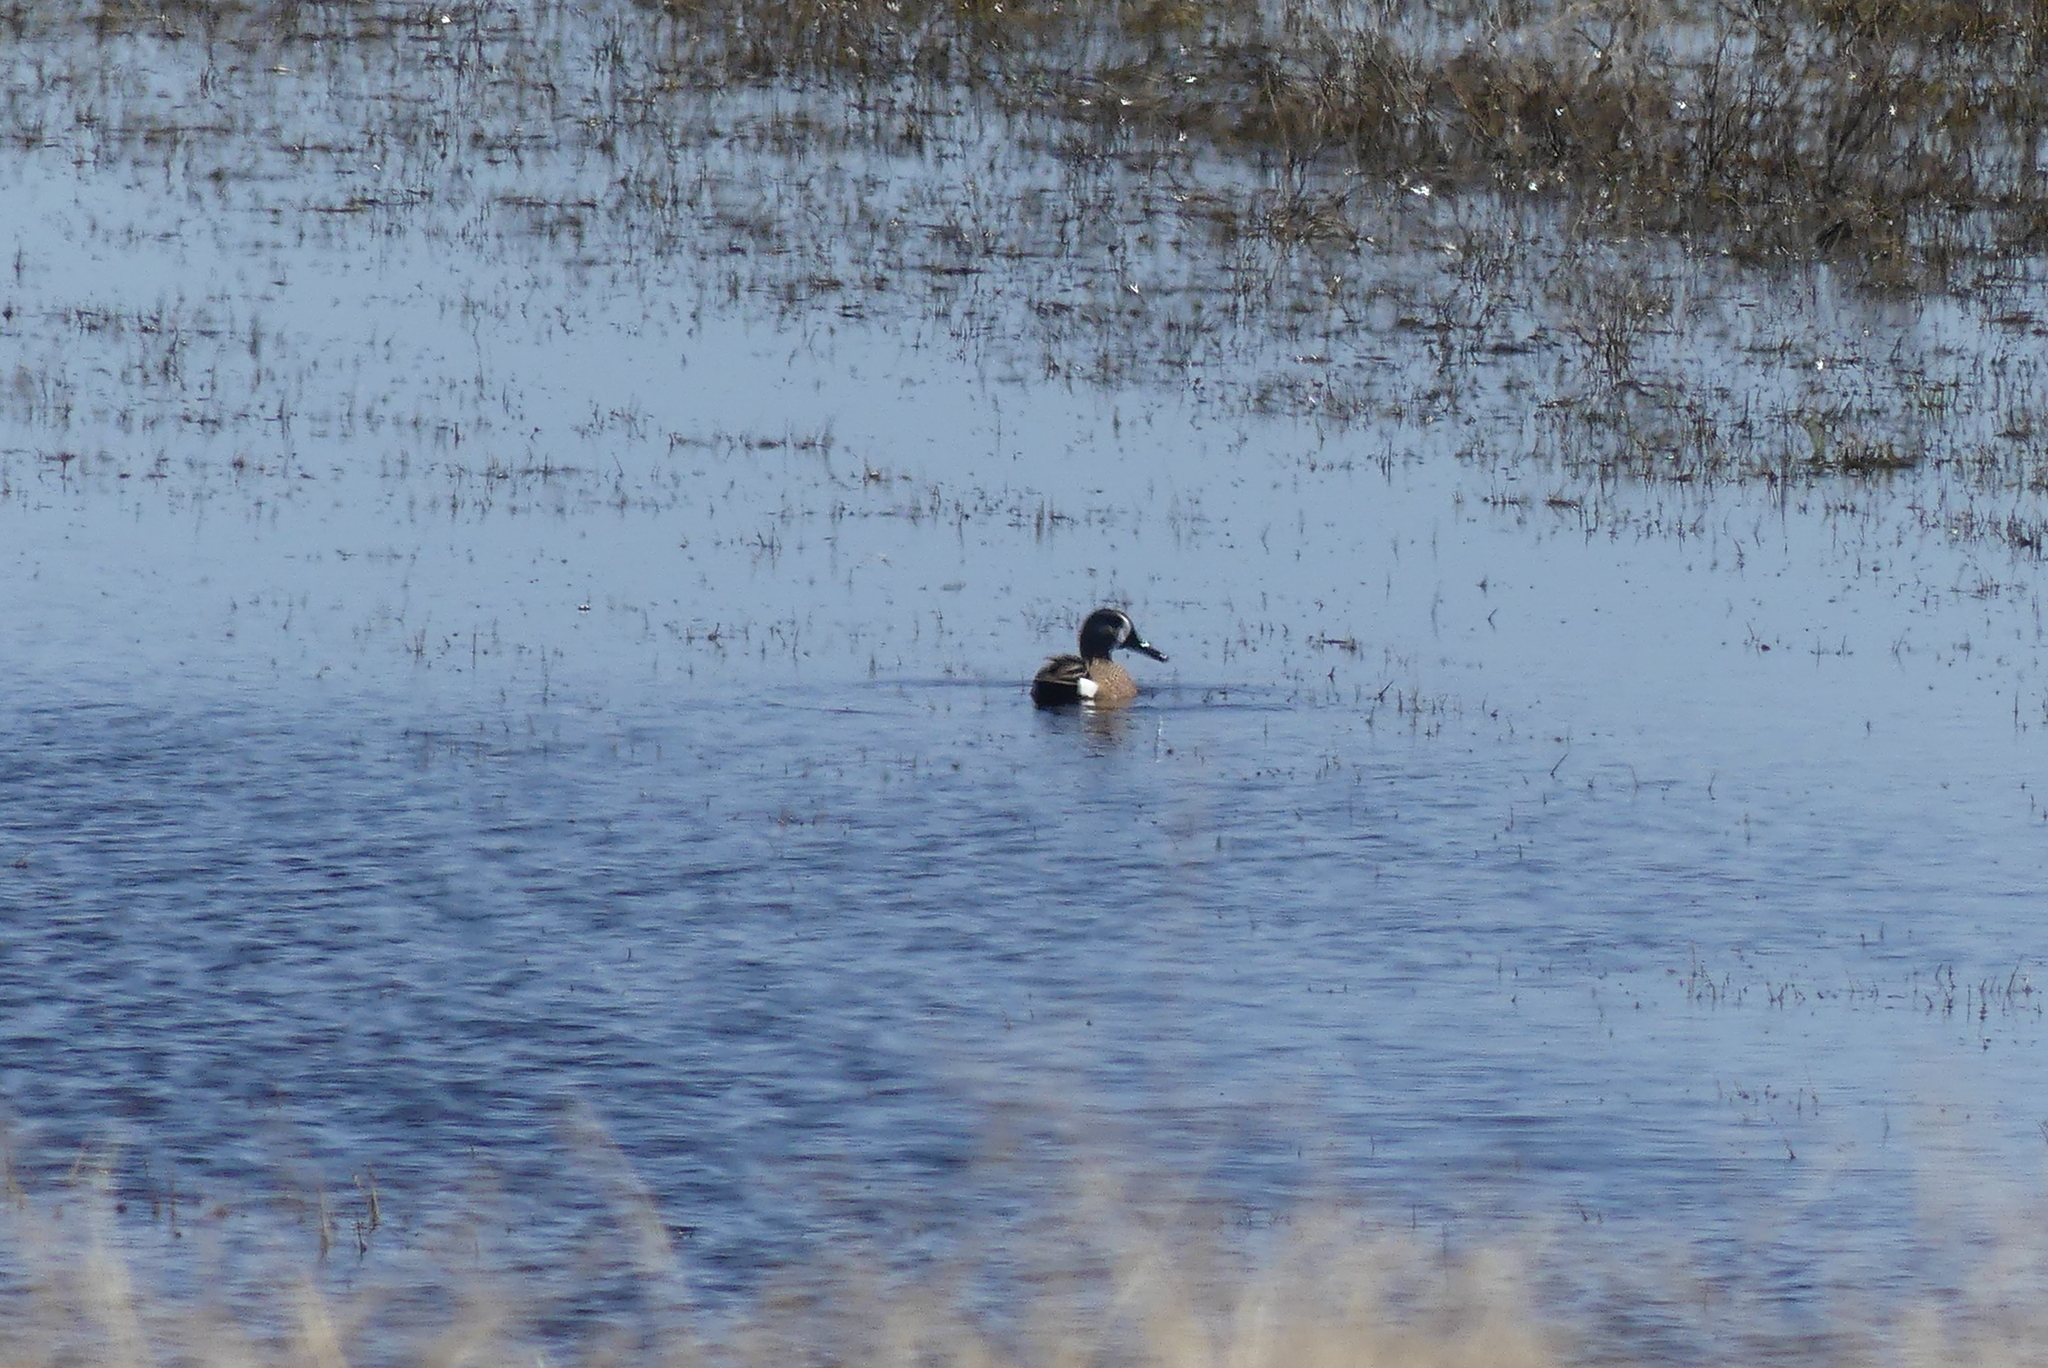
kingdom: Animalia
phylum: Chordata
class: Aves
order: Anseriformes
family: Anatidae
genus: Spatula
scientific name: Spatula discors
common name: Blue-winged teal
